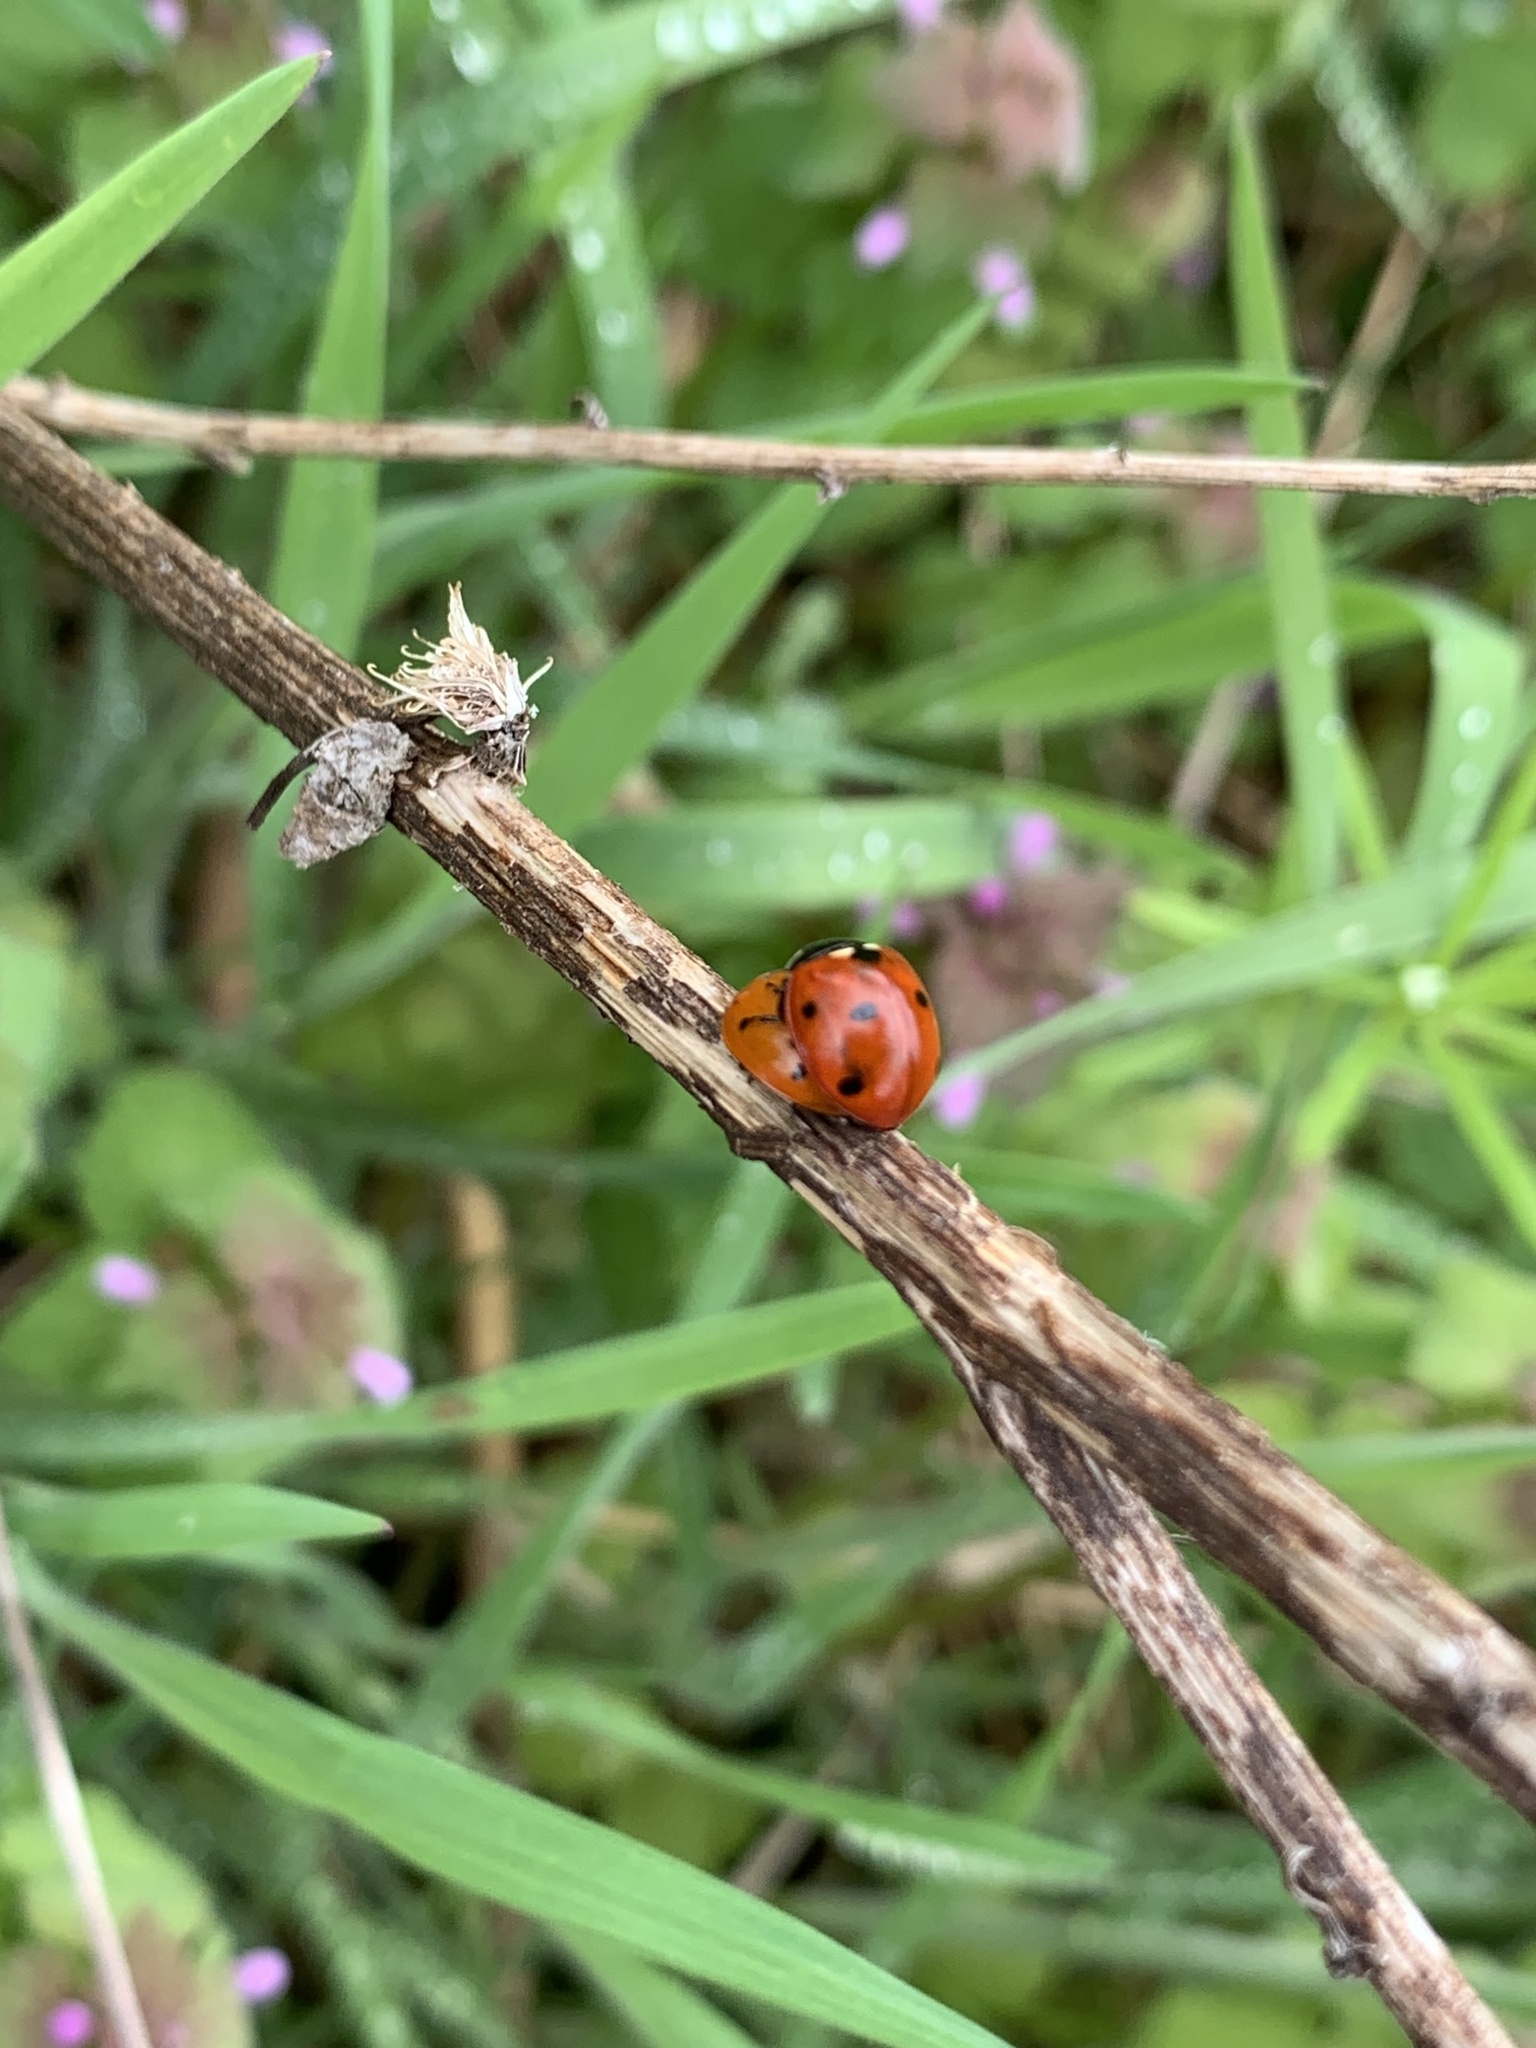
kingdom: Animalia
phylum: Arthropoda
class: Insecta
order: Coleoptera
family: Coccinellidae
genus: Coccinella
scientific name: Coccinella septempunctata
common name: Sevenspotted lady beetle
